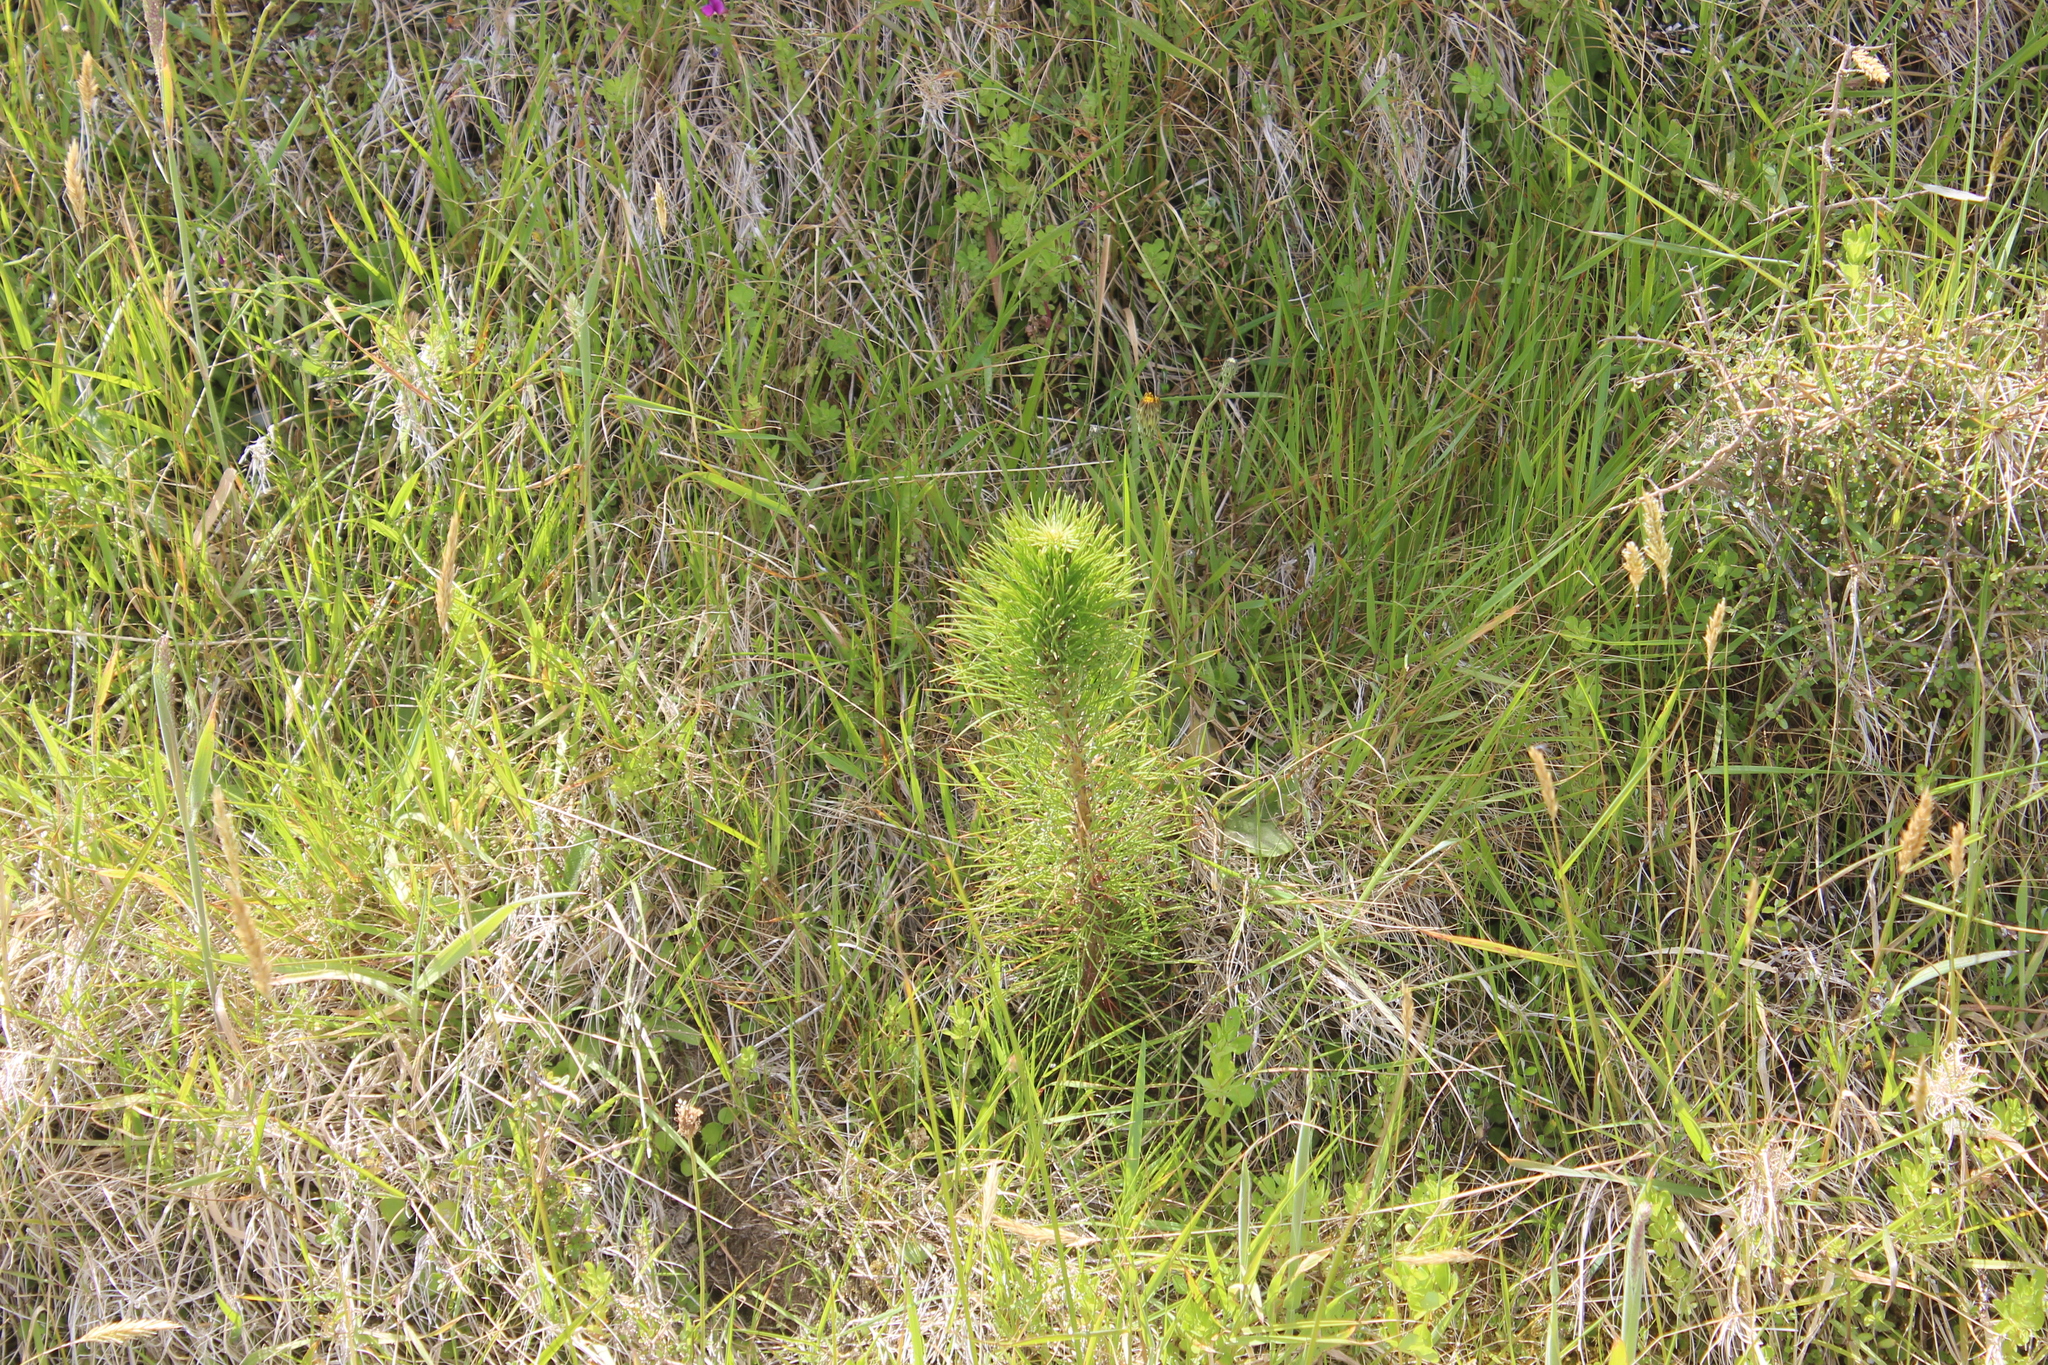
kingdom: Plantae
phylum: Tracheophyta
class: Pinopsida
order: Pinales
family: Pinaceae
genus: Pinus
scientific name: Pinus radiata
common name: Monterey pine
